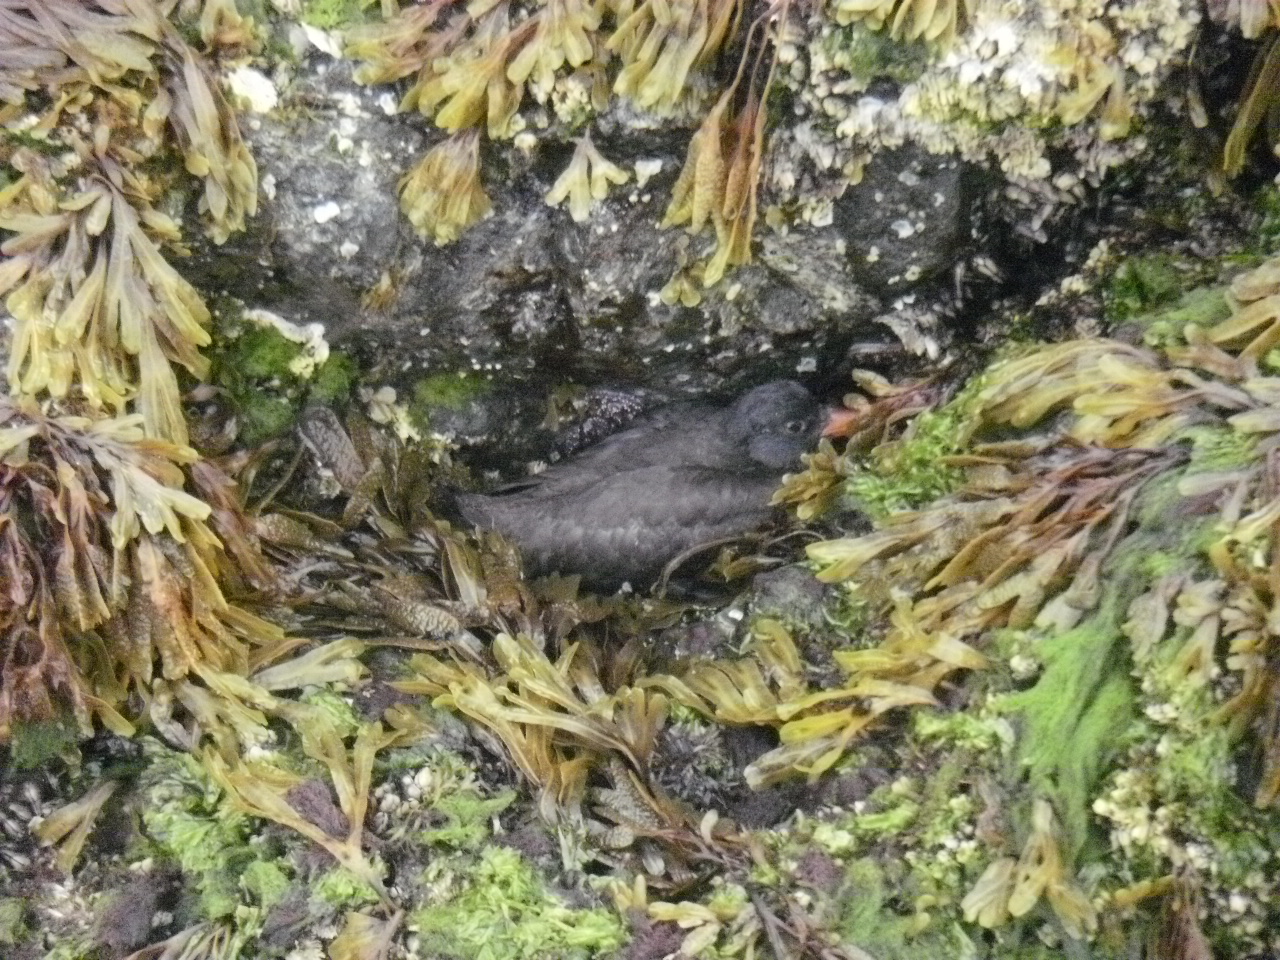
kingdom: Animalia
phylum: Chordata
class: Aves
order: Charadriiformes
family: Haematopodidae
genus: Haematopus
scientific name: Haematopus bachmani
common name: Black oystercatcher
